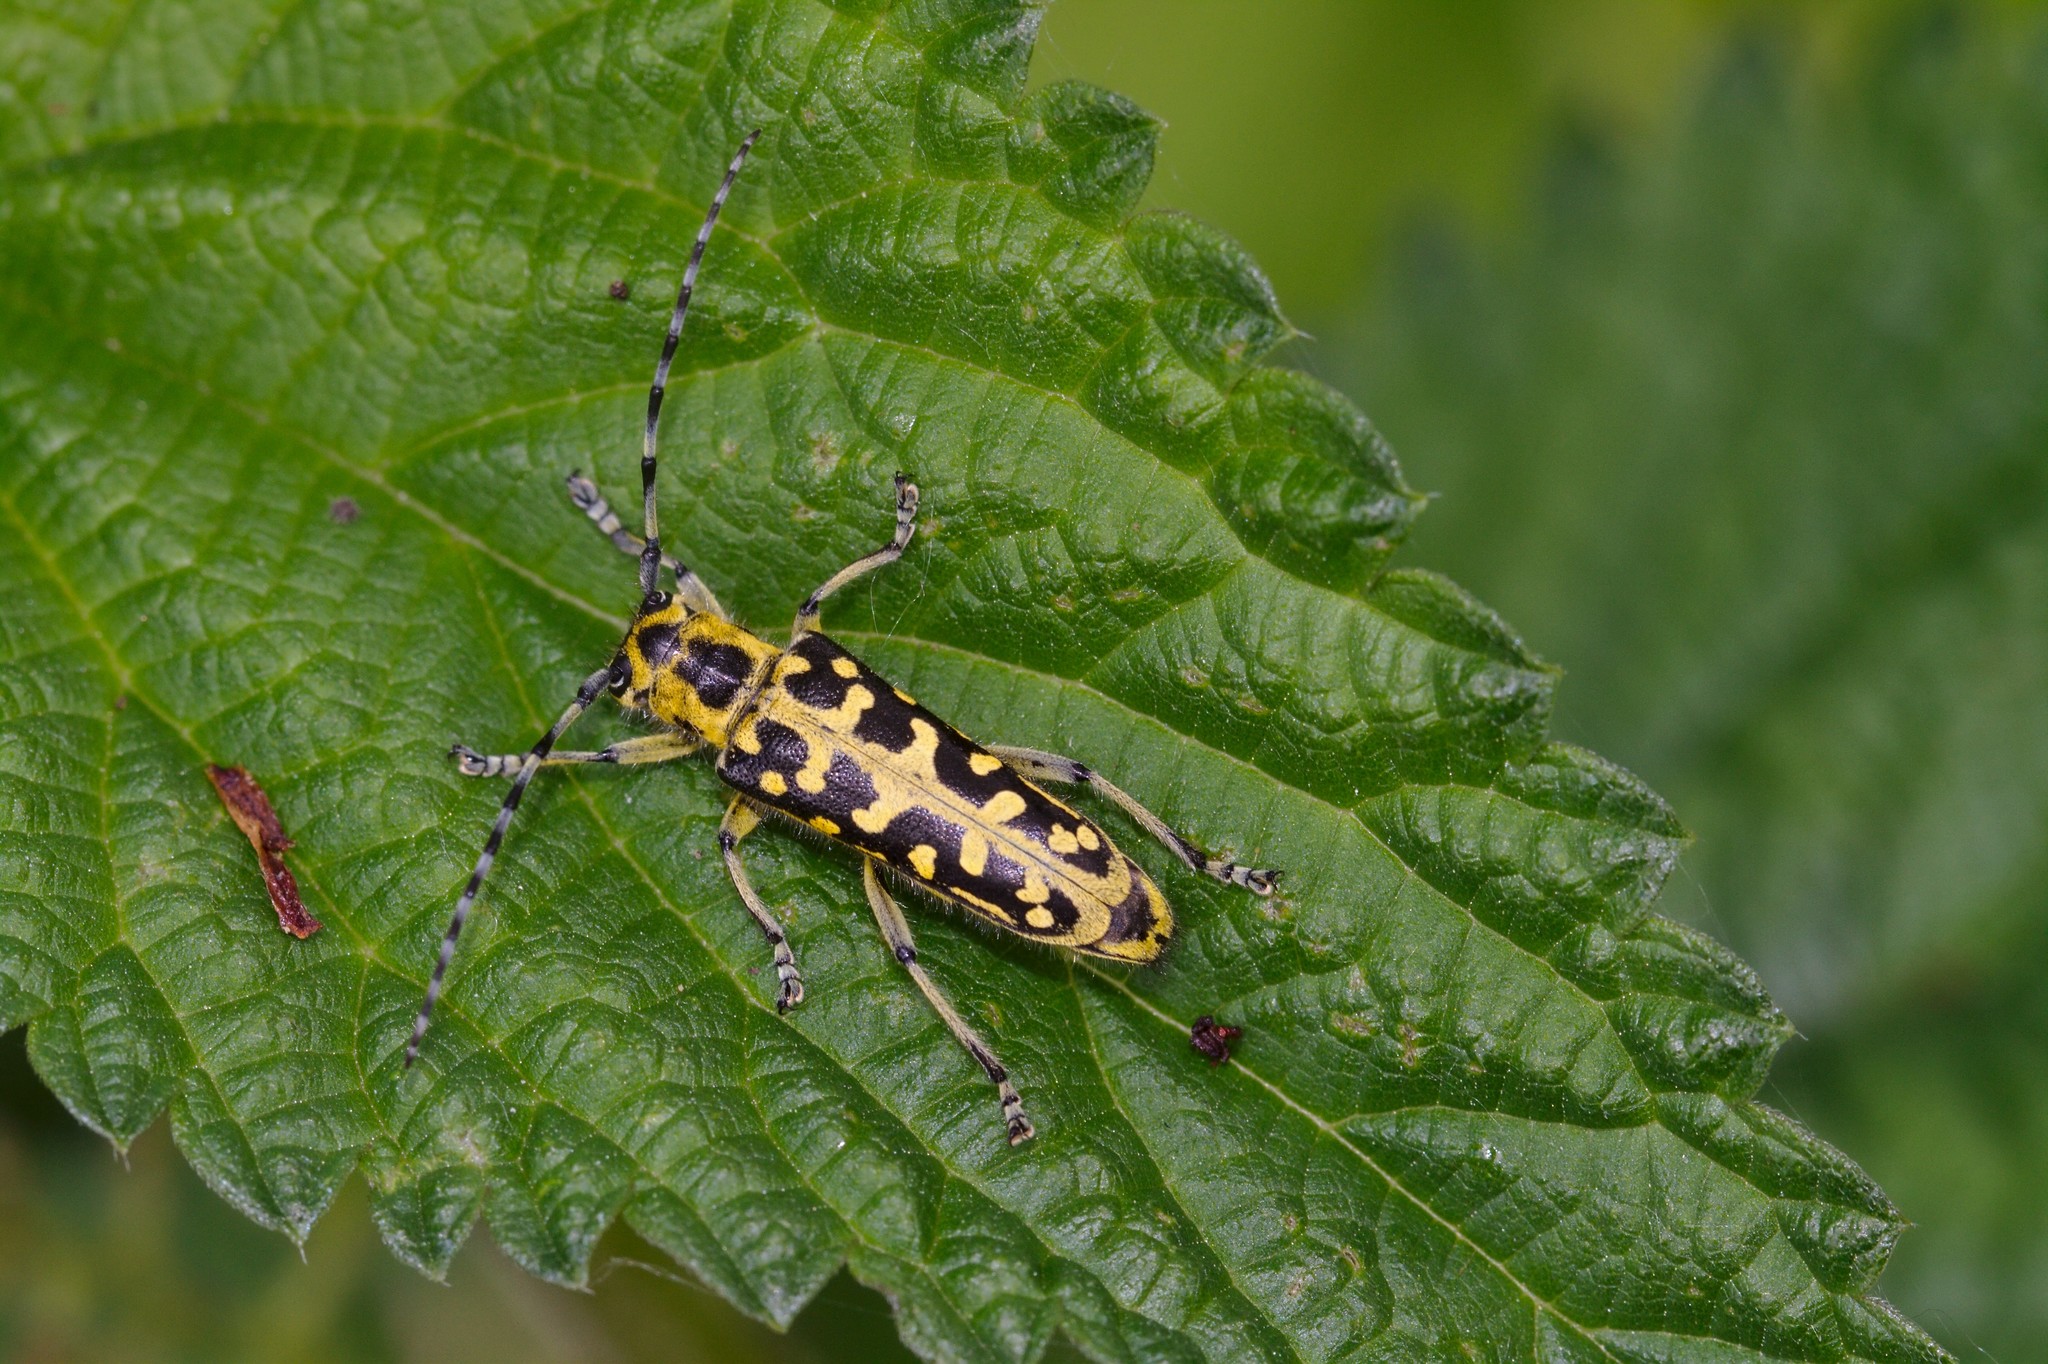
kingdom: Animalia
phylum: Arthropoda
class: Insecta
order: Coleoptera
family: Cerambycidae
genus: Saperda
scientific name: Saperda scalaris
